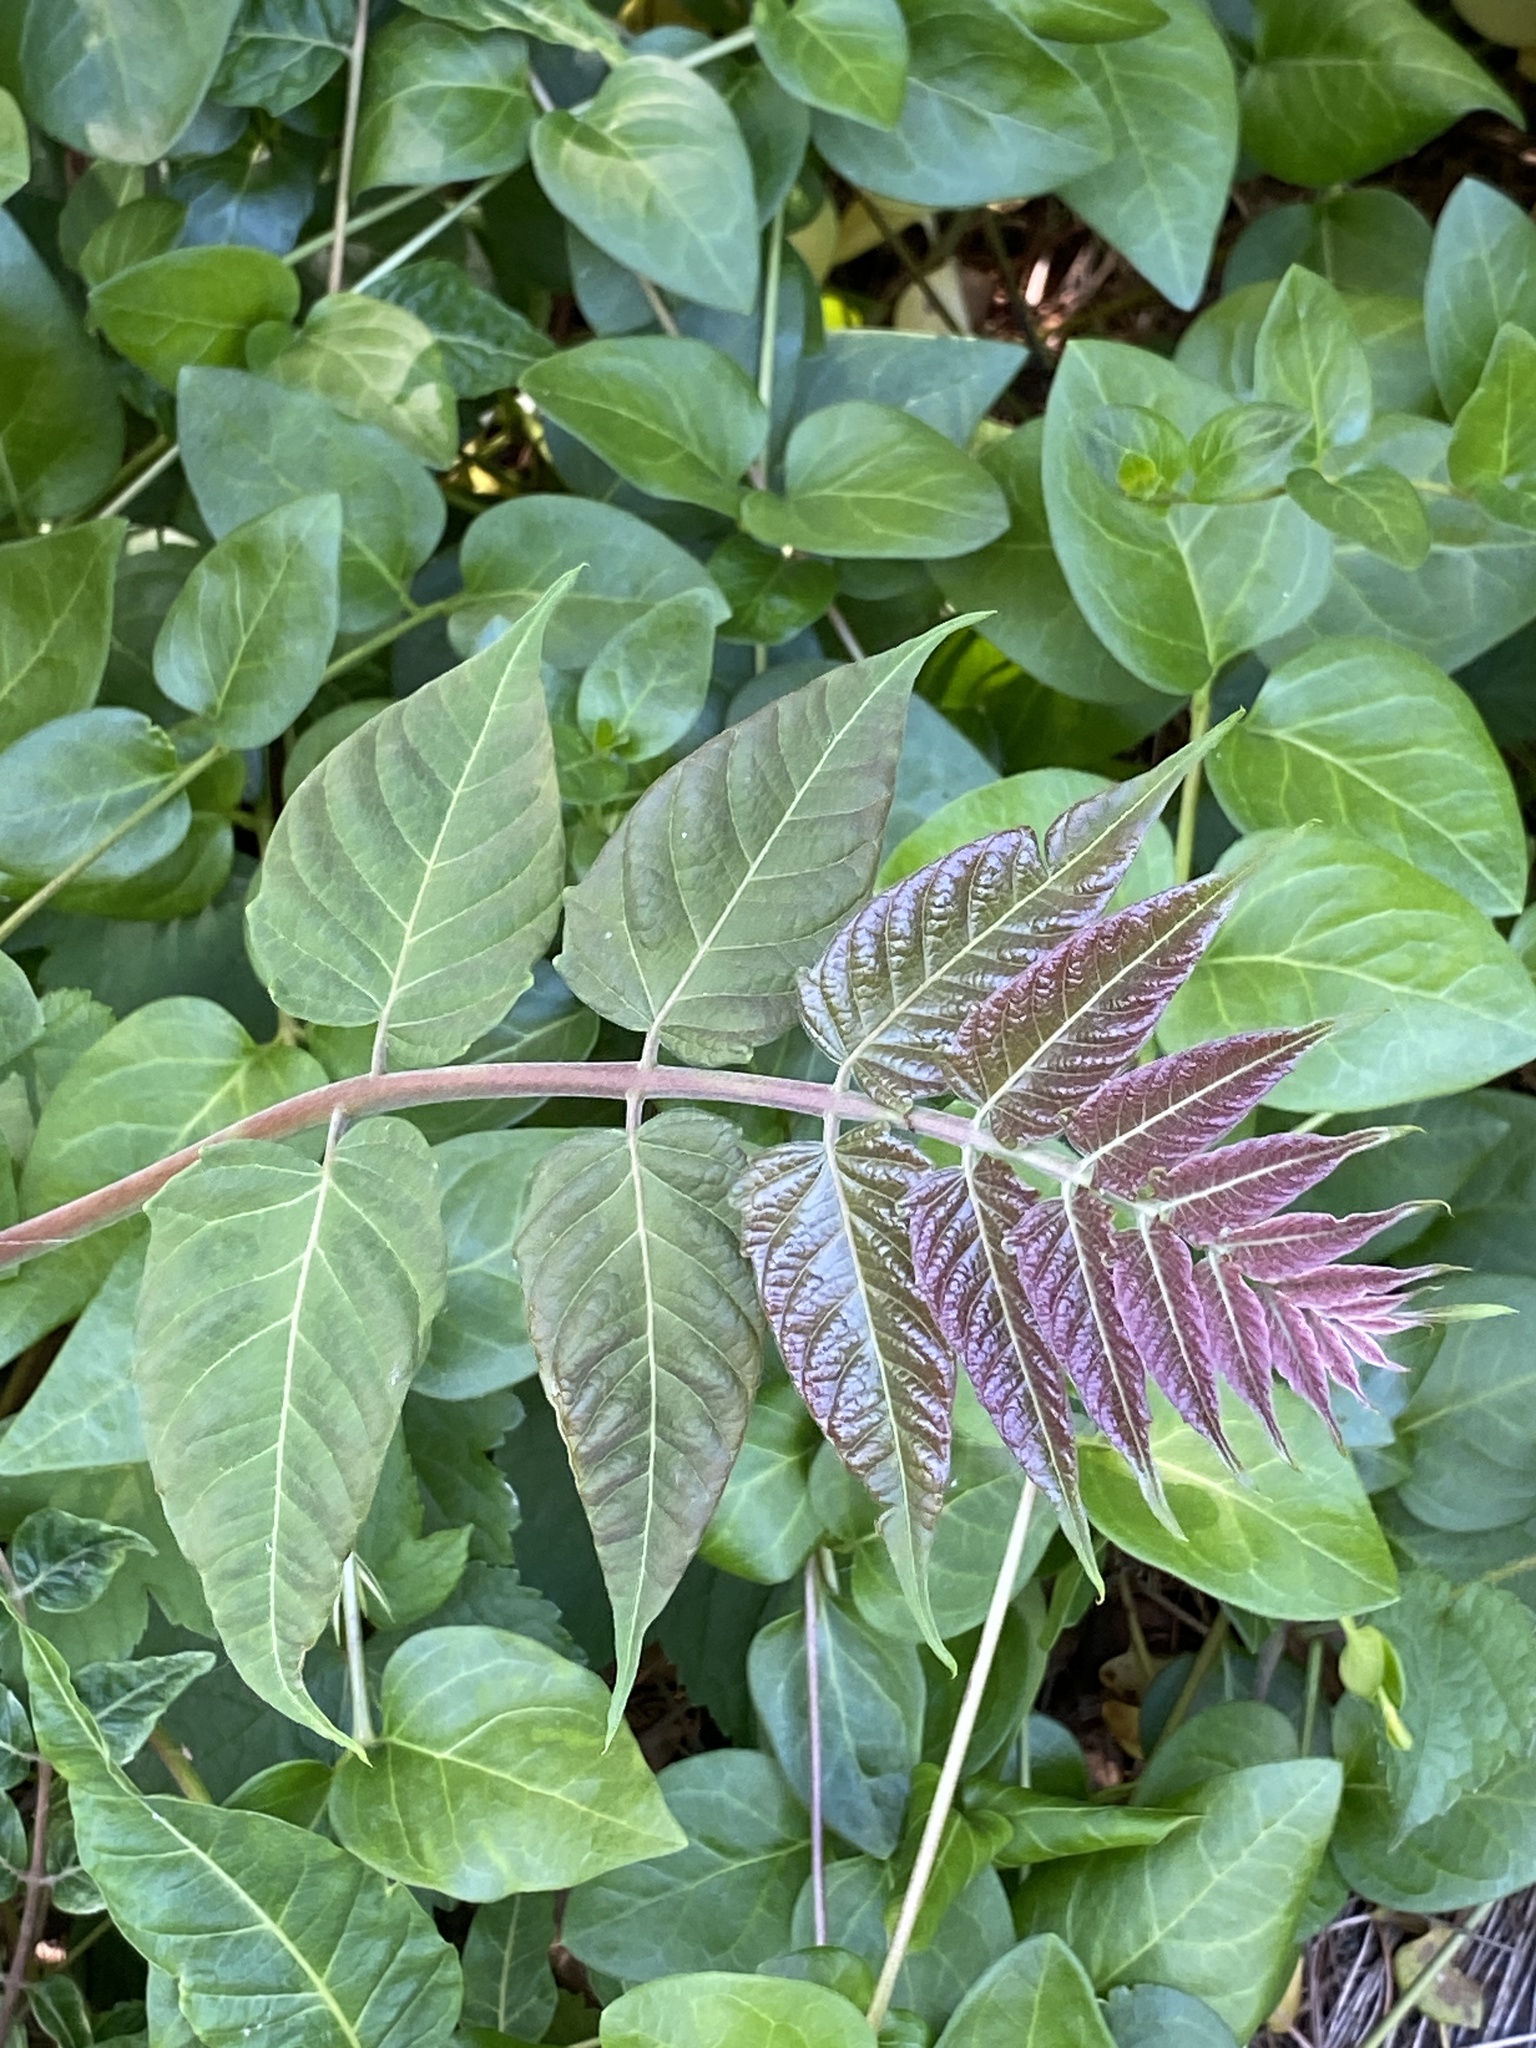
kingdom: Plantae
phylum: Tracheophyta
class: Magnoliopsida
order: Sapindales
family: Simaroubaceae
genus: Ailanthus
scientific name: Ailanthus altissima
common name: Tree-of-heaven
